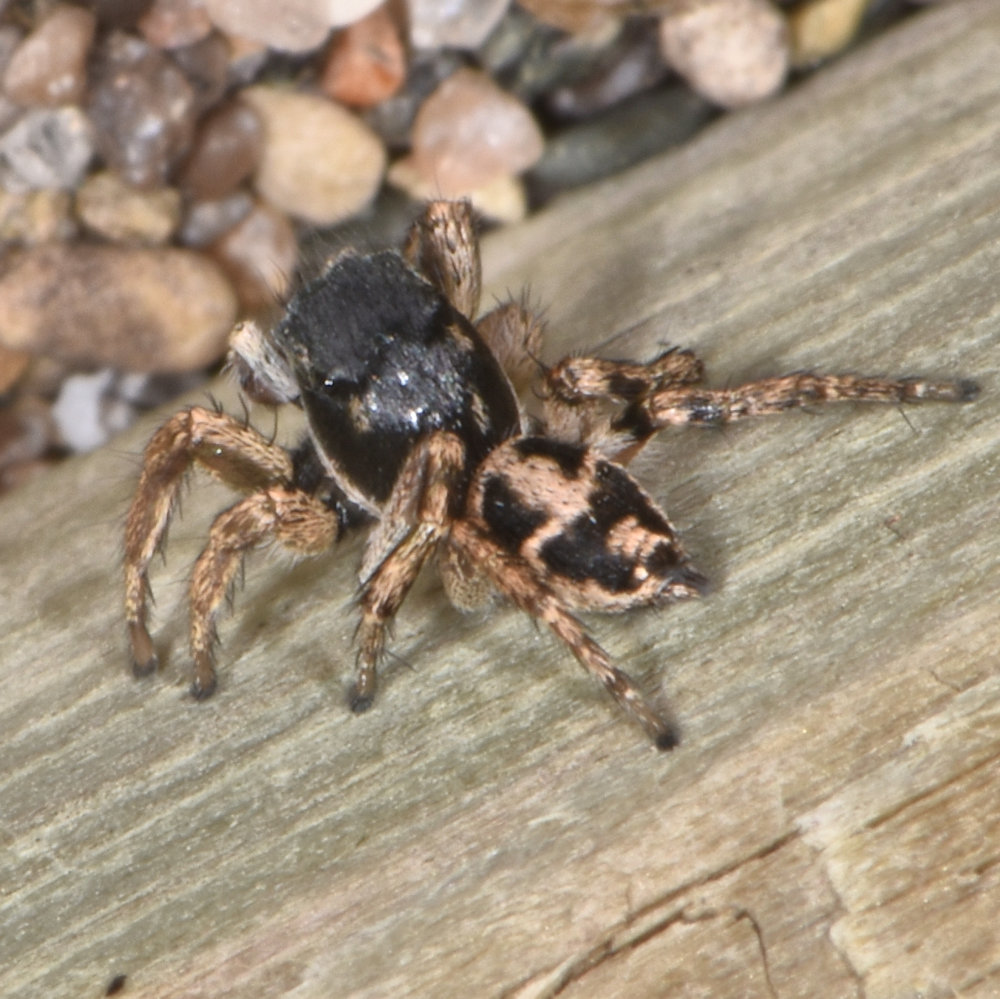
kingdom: Animalia
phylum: Arthropoda
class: Arachnida
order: Araneae
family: Salticidae
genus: Habronattus
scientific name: Habronattus borealis
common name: Boreal paradise spider
